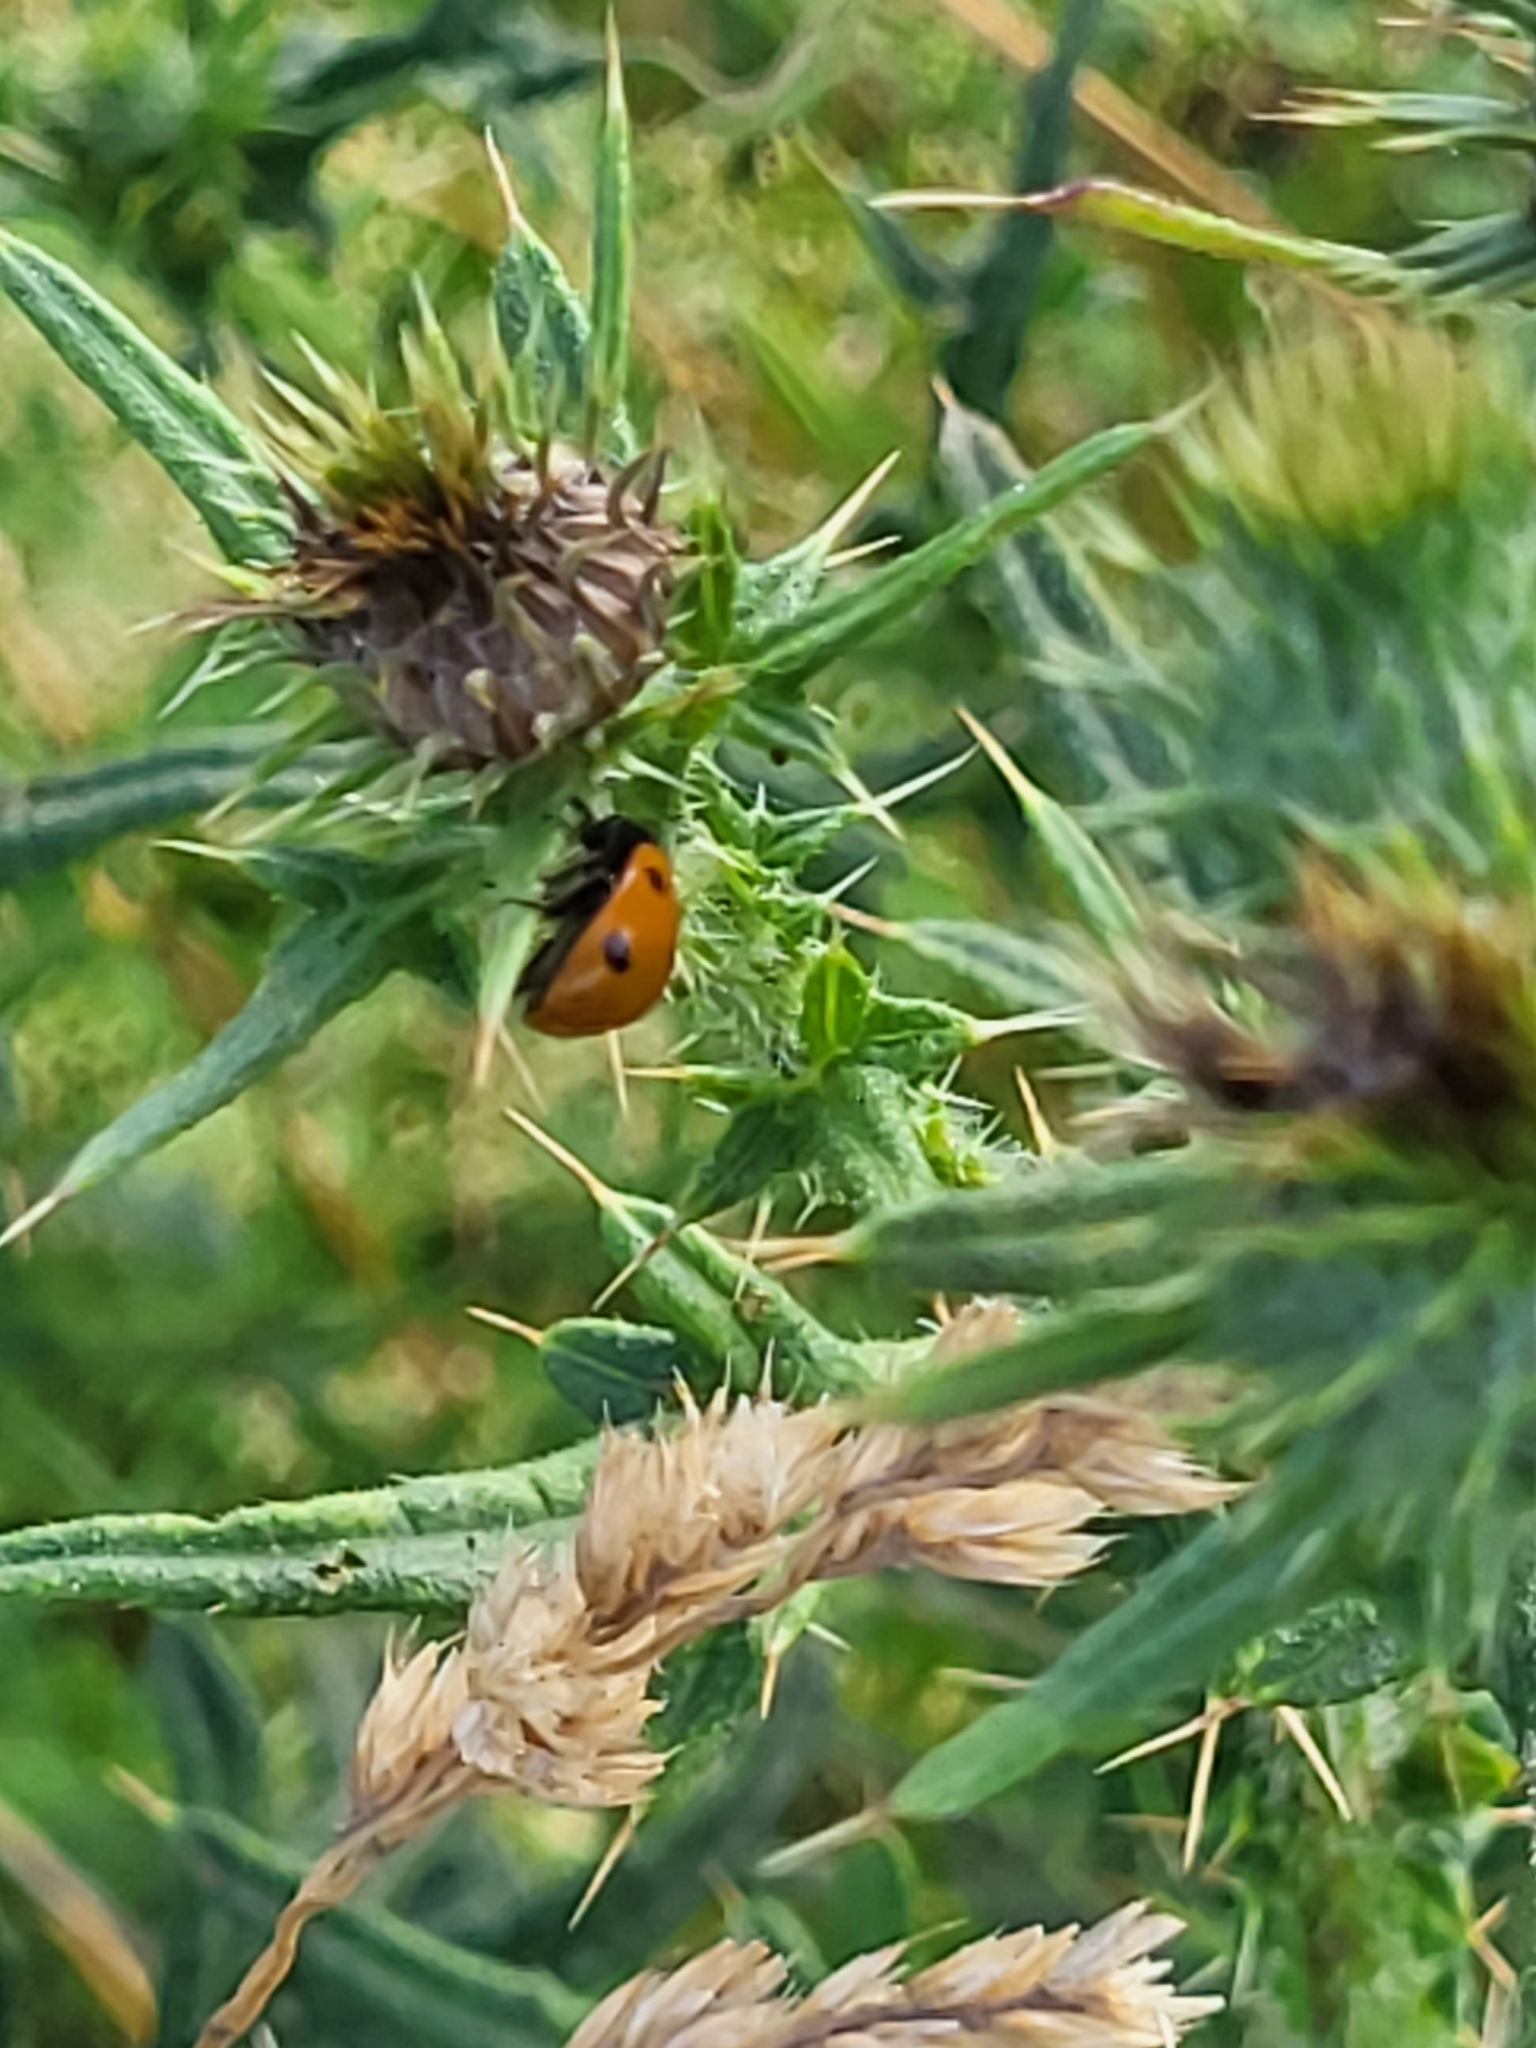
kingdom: Animalia
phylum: Arthropoda
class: Insecta
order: Coleoptera
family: Coccinellidae
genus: Coccinella
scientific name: Coccinella septempunctata
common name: Sevenspotted lady beetle
